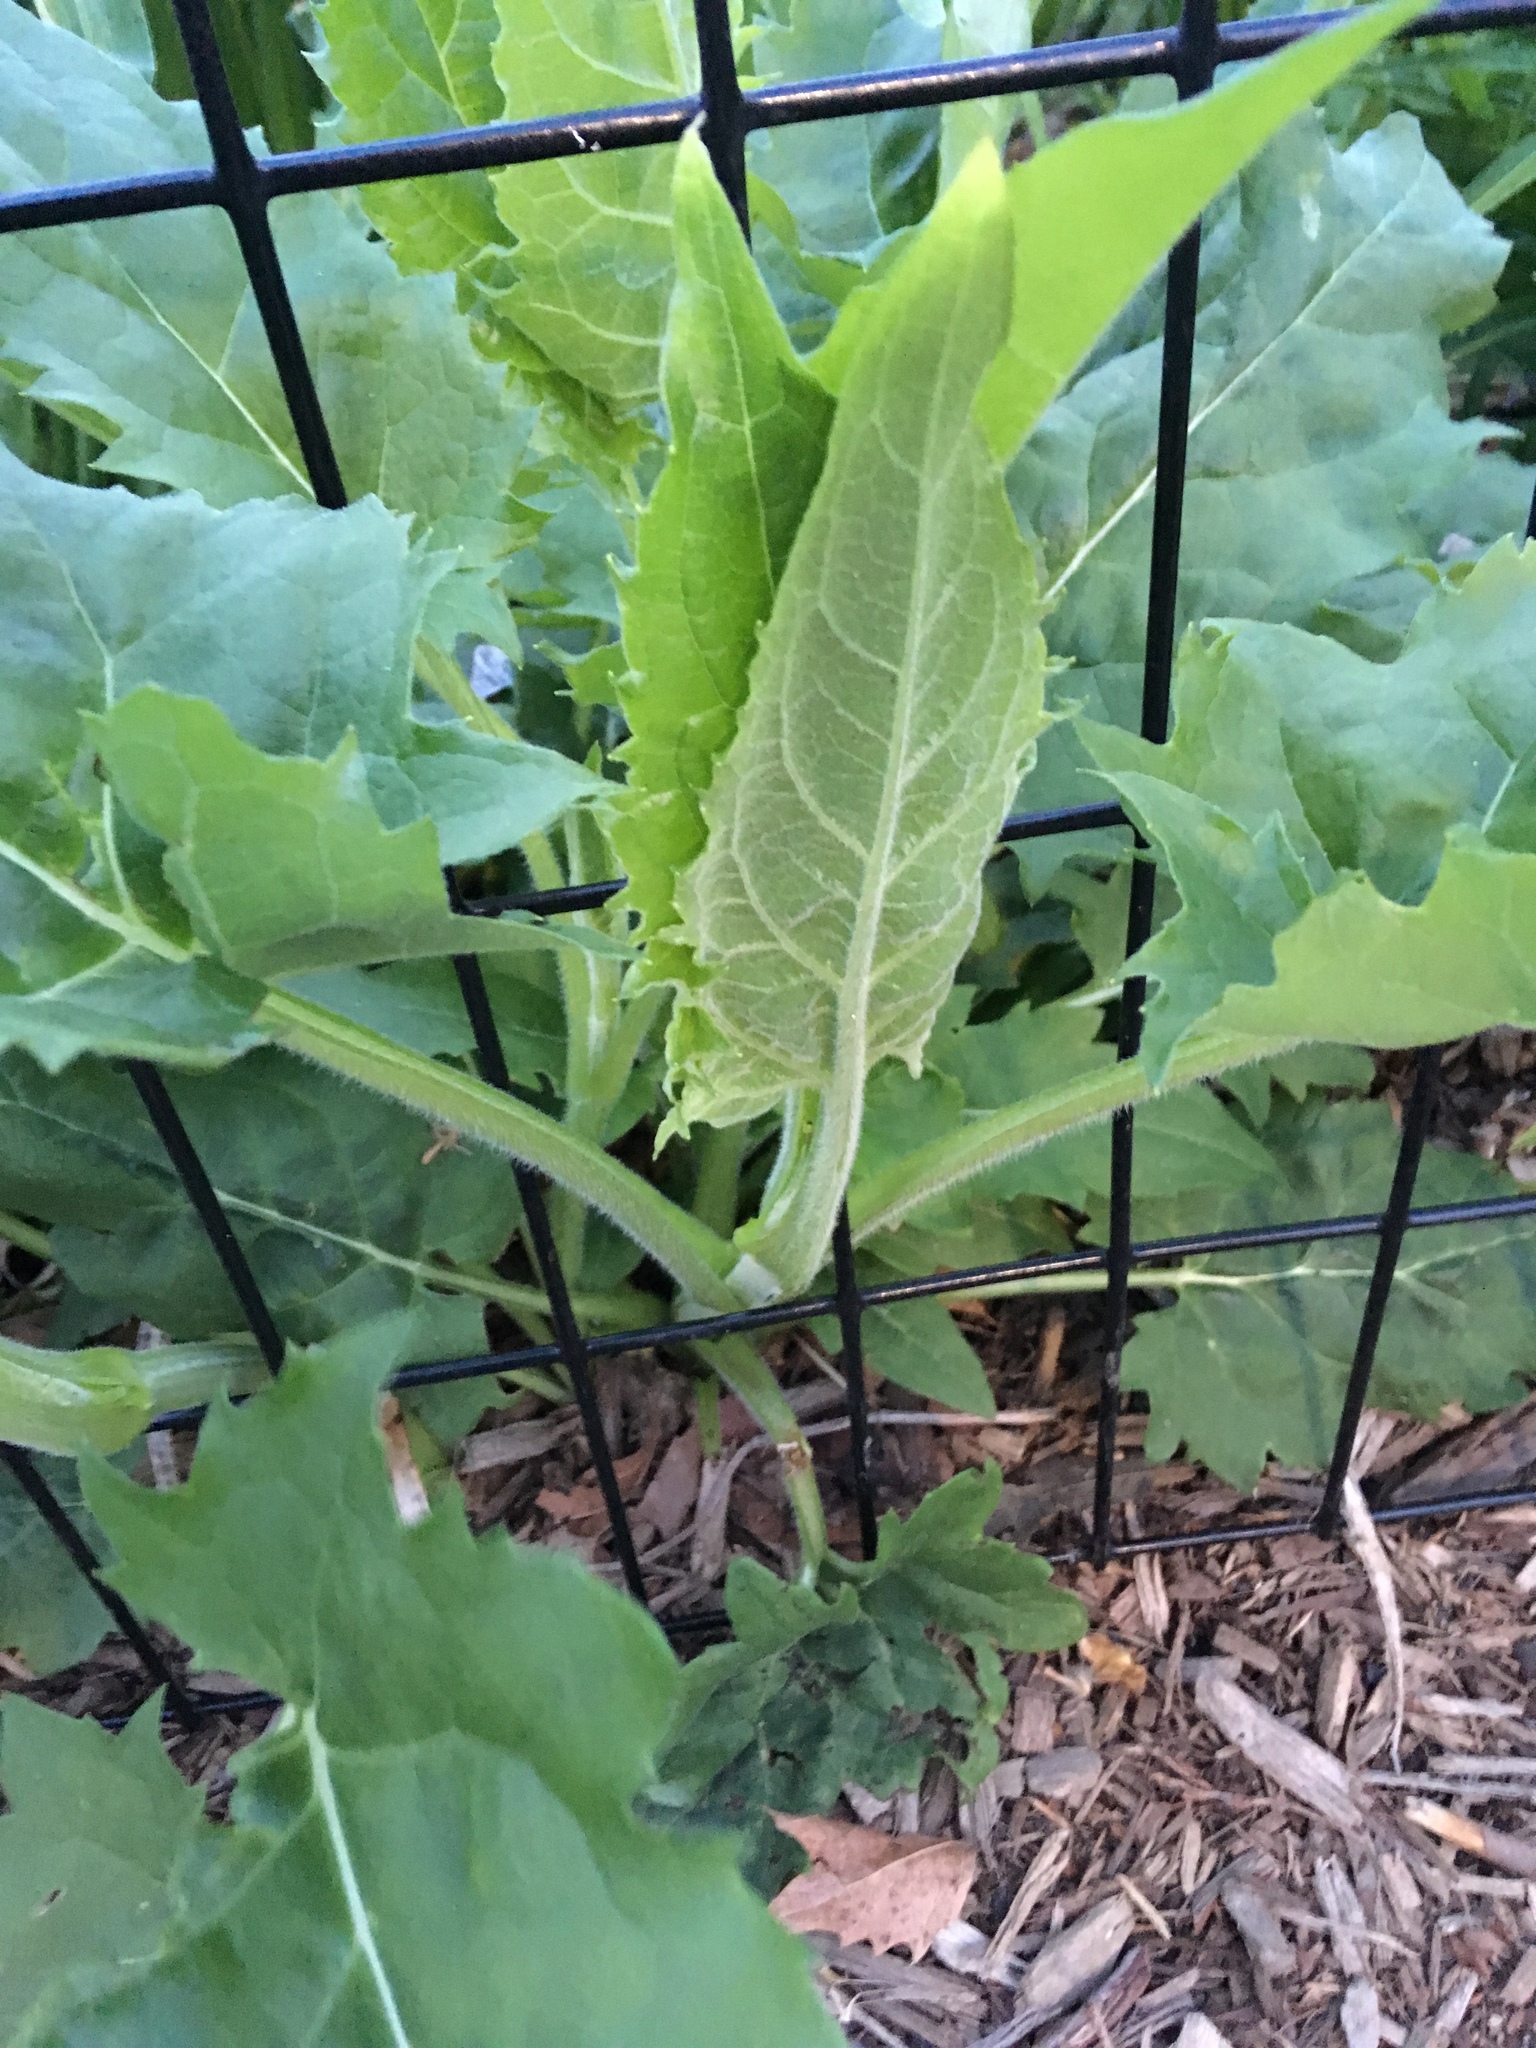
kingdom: Plantae
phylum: Tracheophyta
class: Magnoliopsida
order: Asterales
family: Asteraceae
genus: Silphium
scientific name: Silphium perfoliatum
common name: Cup-plant
